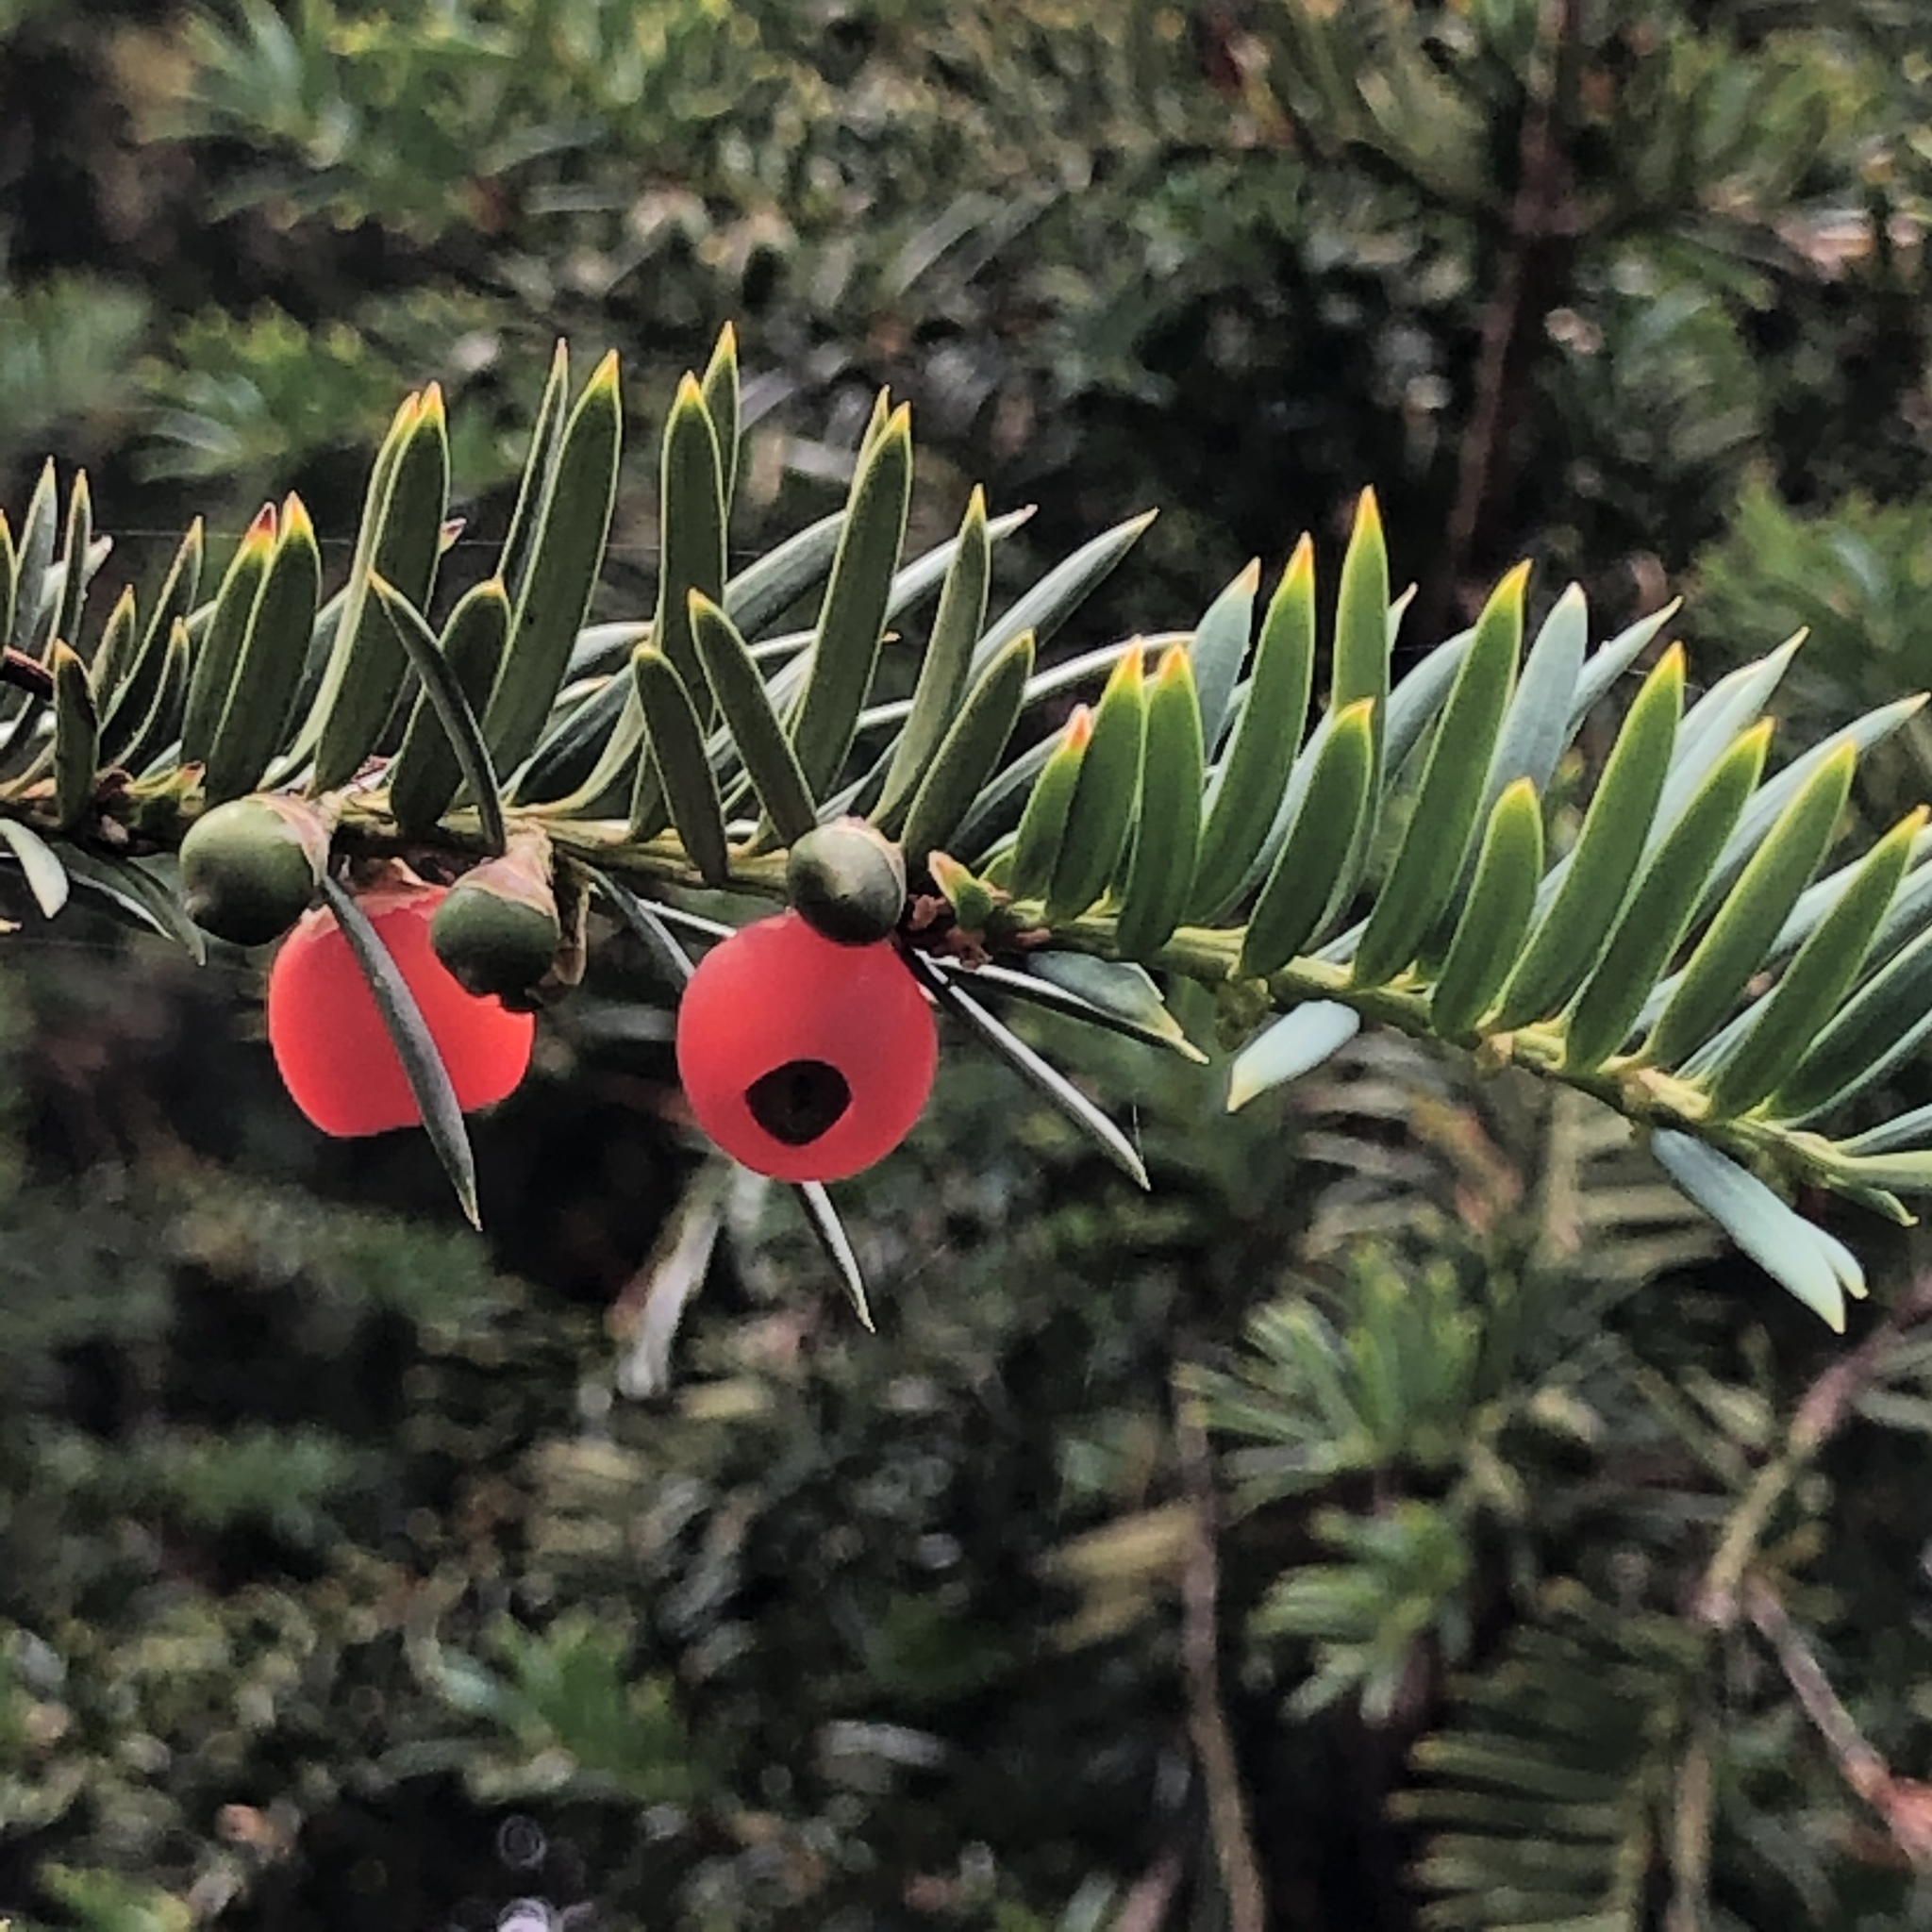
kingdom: Plantae
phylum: Tracheophyta
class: Pinopsida
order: Pinales
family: Taxaceae
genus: Taxus
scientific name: Taxus brevifolia
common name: Pacific yew
